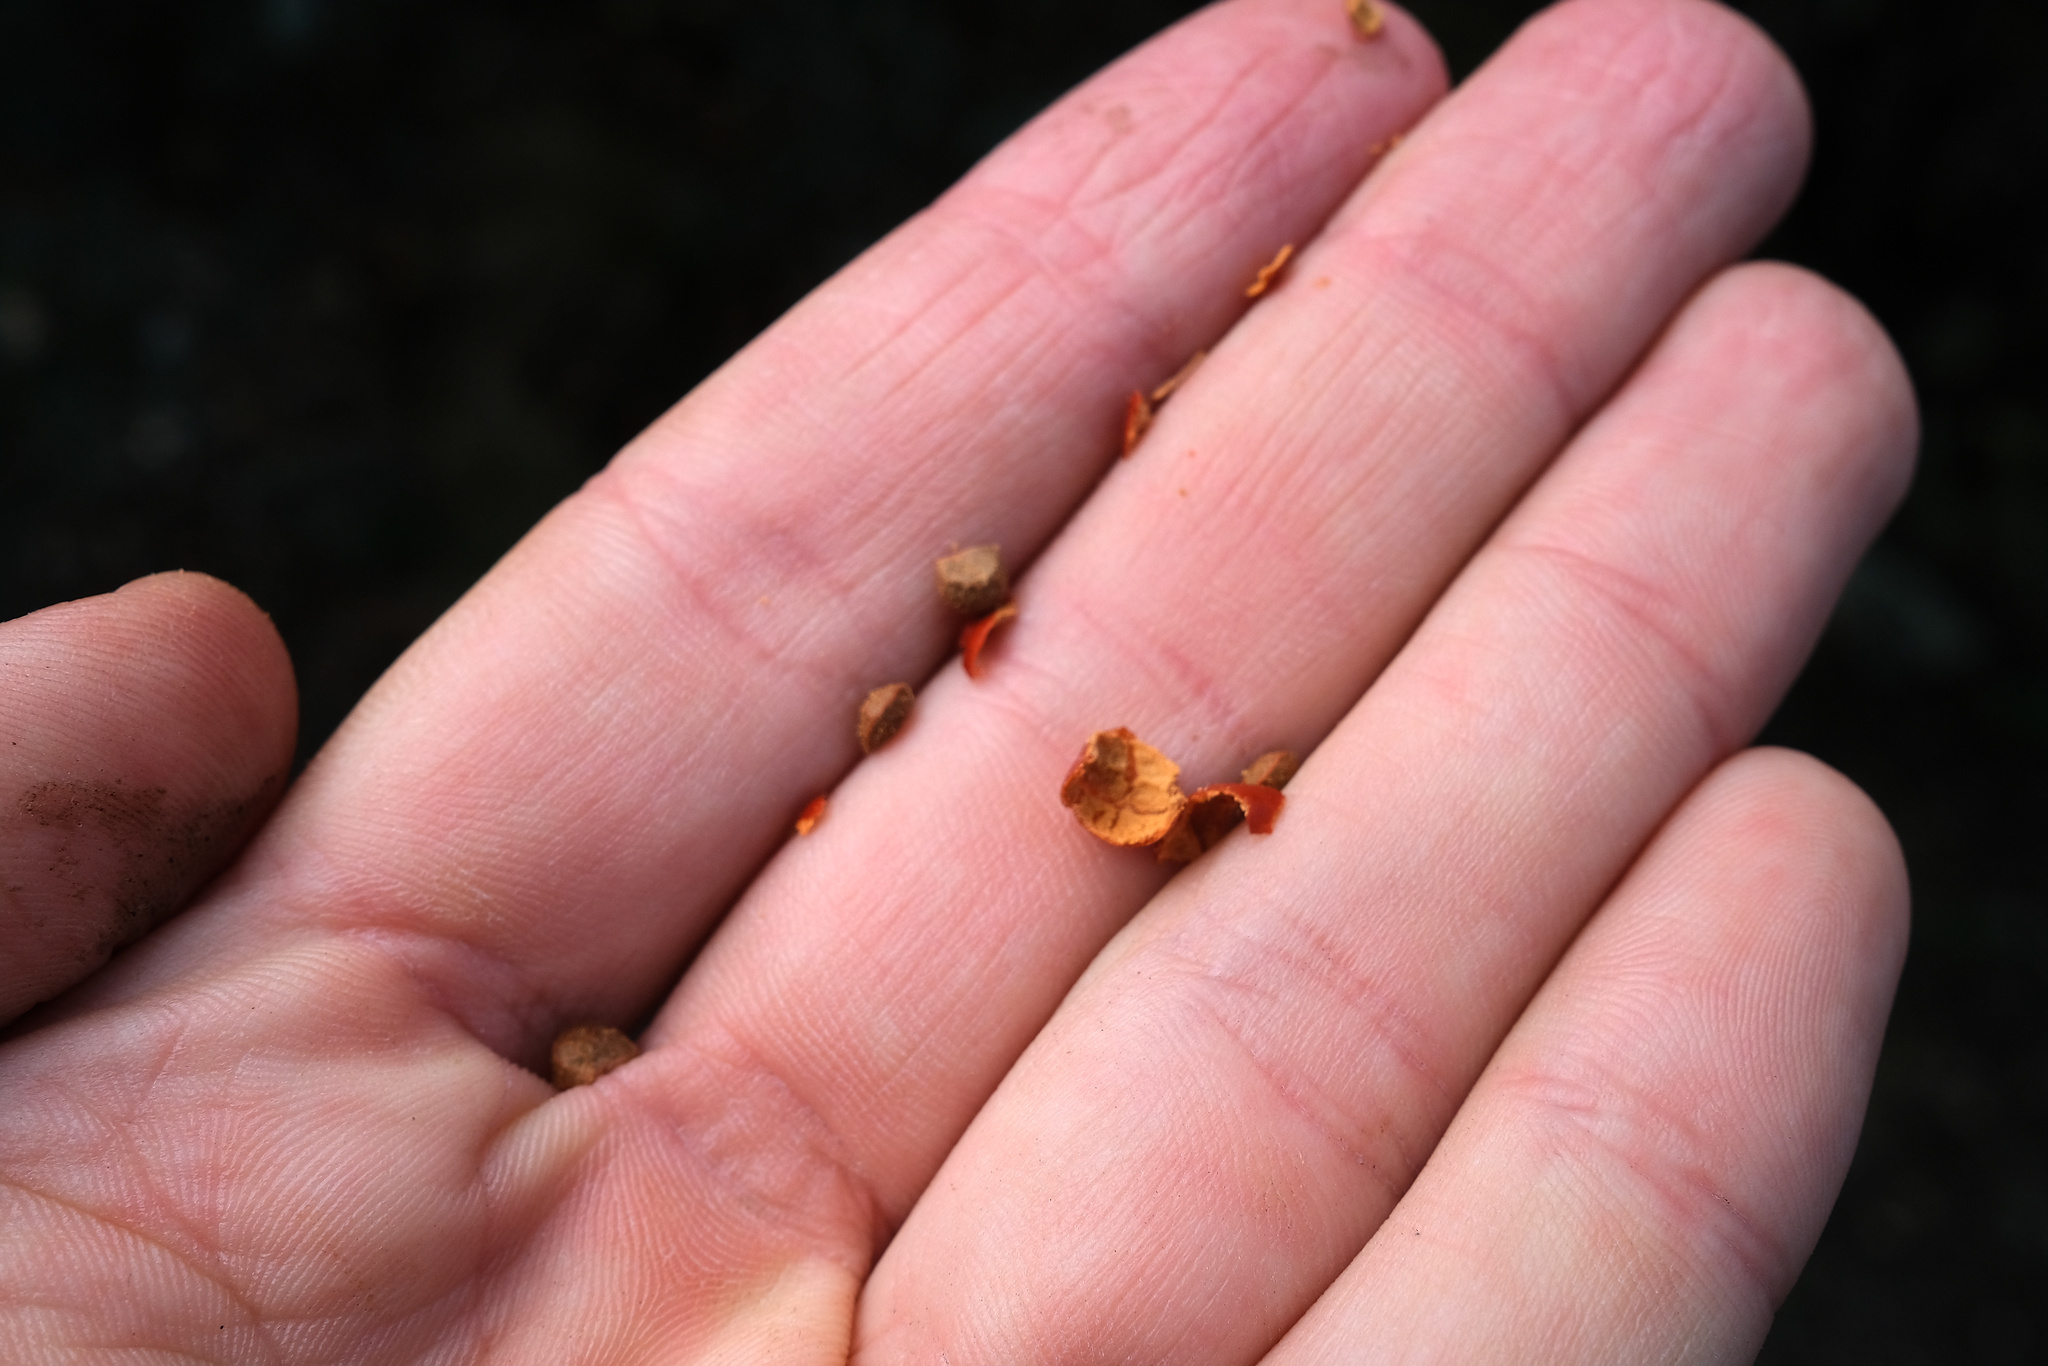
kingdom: Plantae
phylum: Tracheophyta
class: Magnoliopsida
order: Ericales
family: Ericaceae
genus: Arctostaphylos
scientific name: Arctostaphylos obispoensis
